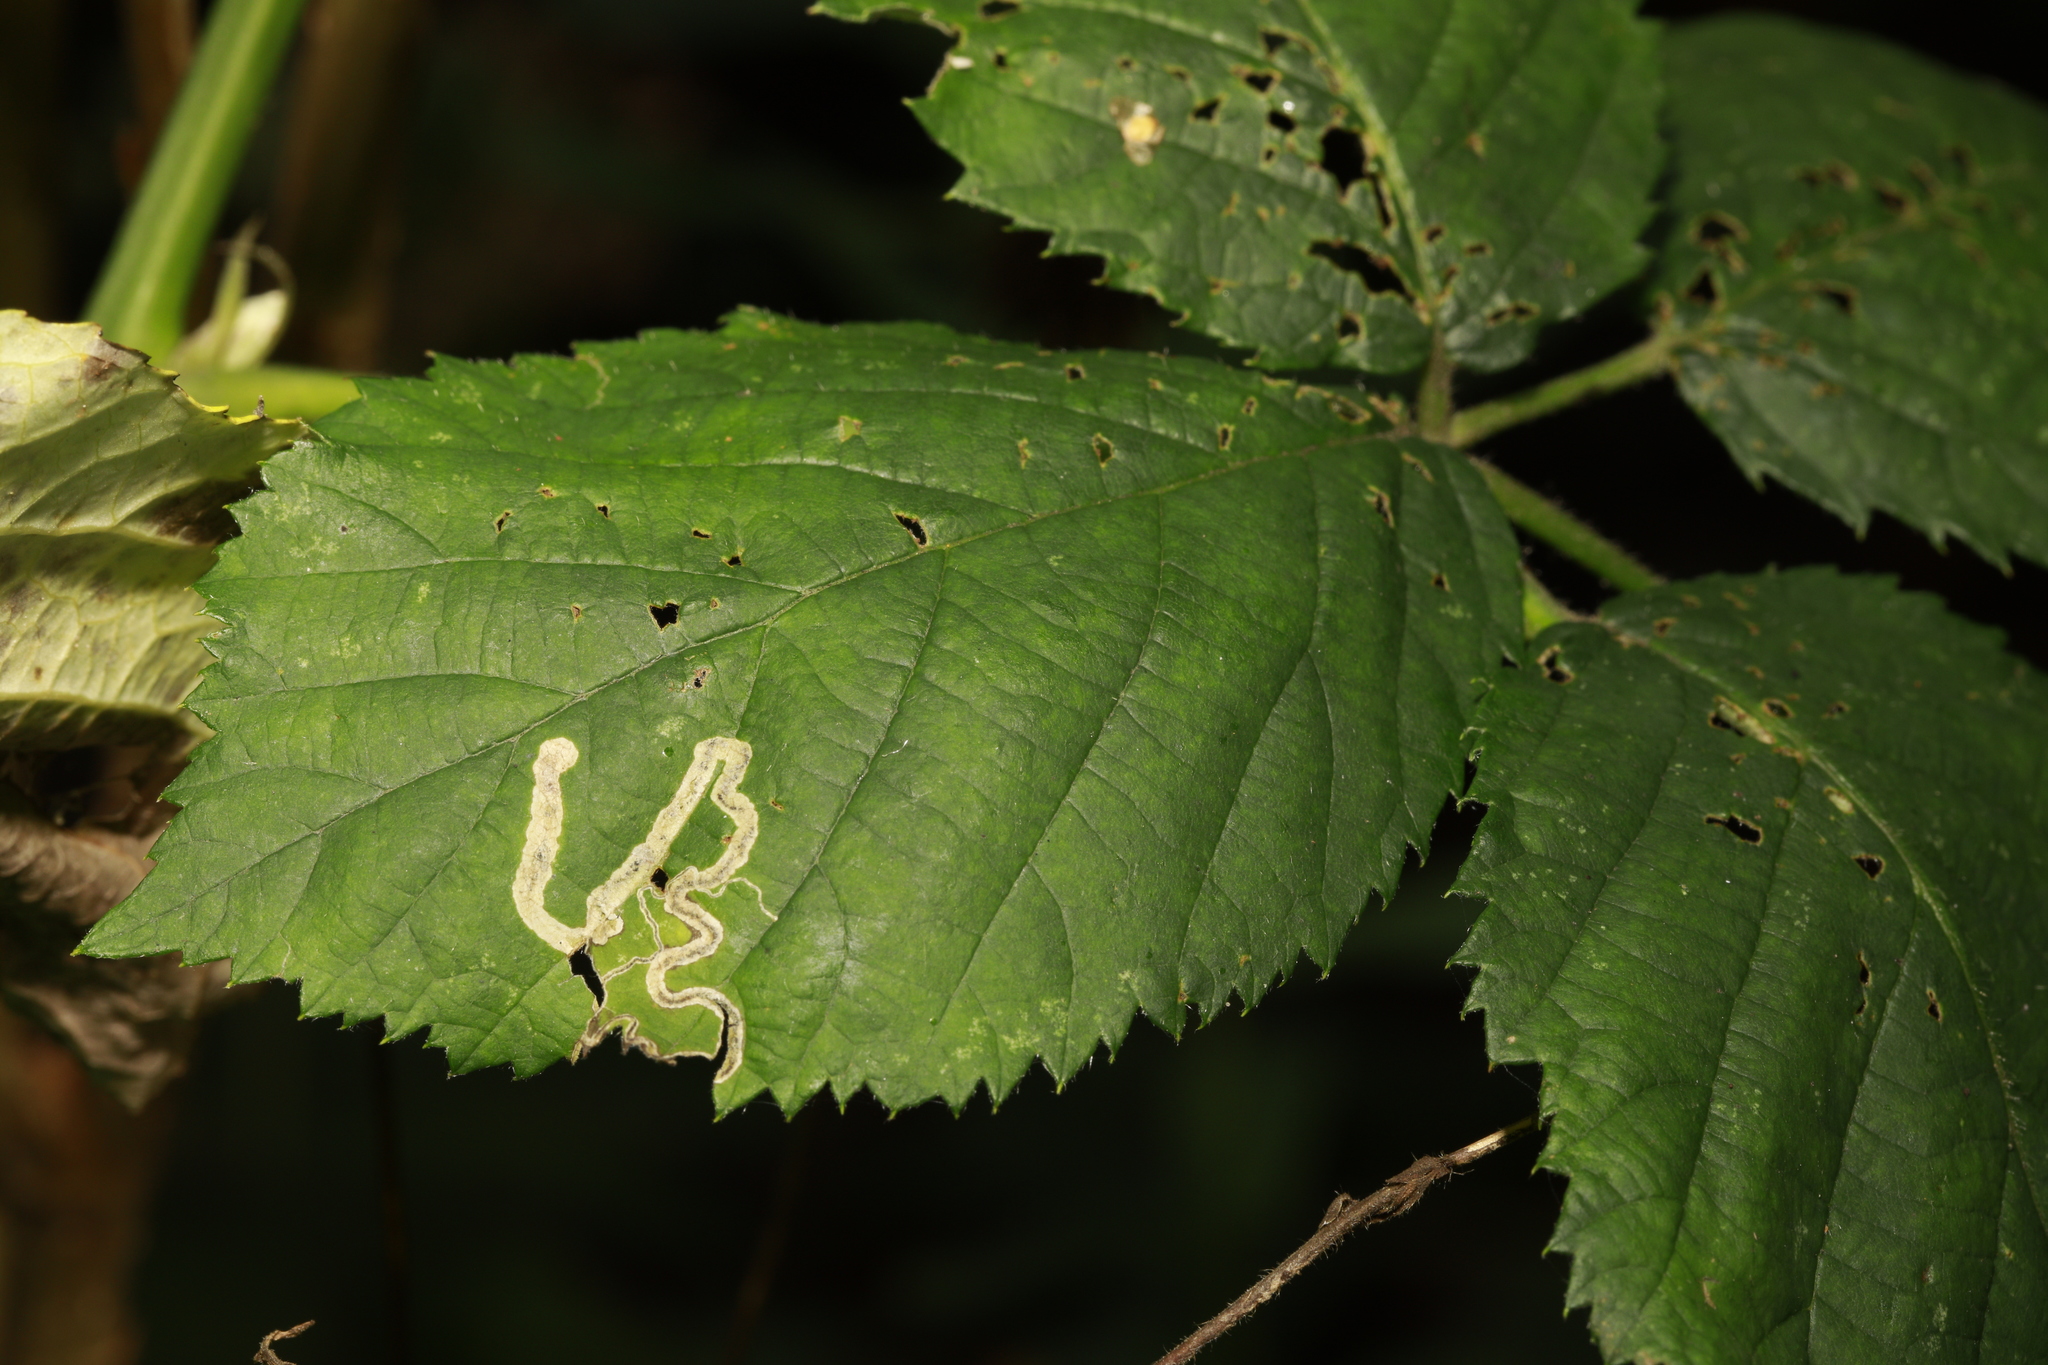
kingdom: Animalia
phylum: Arthropoda
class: Insecta
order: Lepidoptera
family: Nepticulidae
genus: Stigmella
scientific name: Stigmella aurella
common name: Golden pigmy
